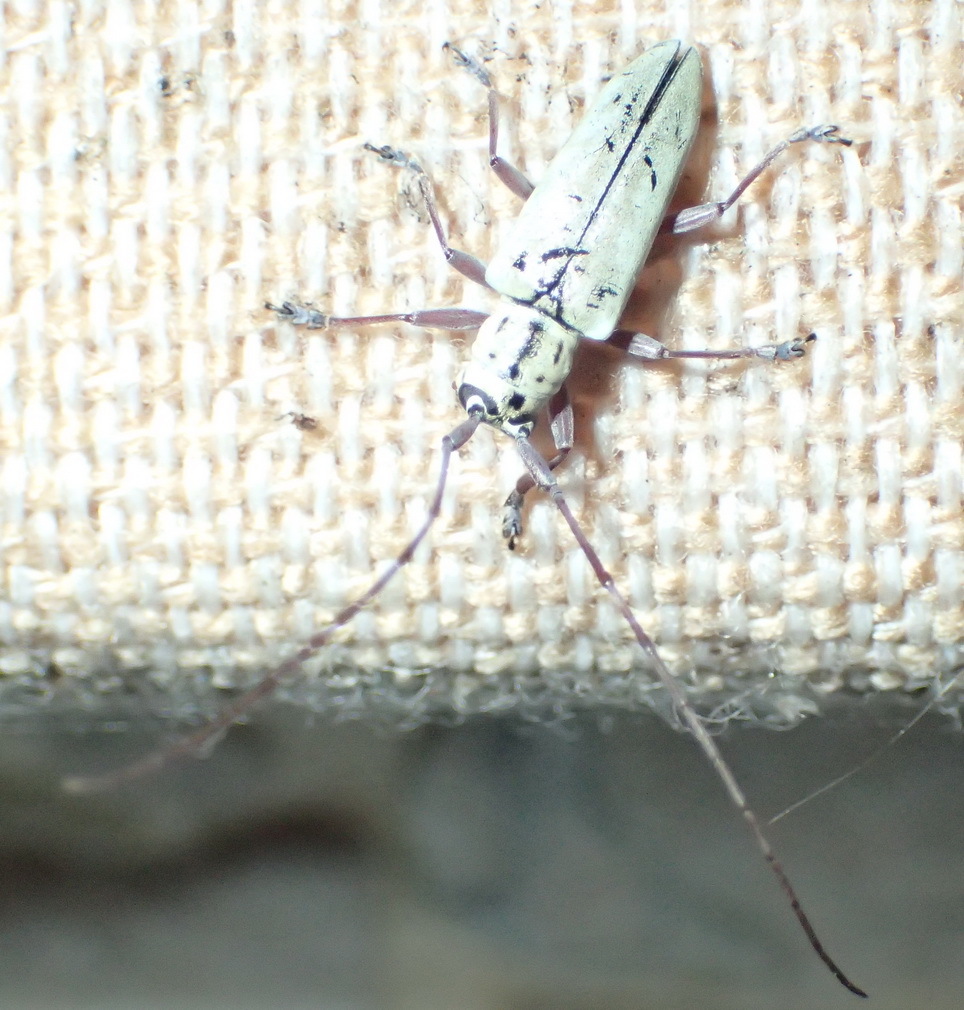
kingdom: Animalia
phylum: Arthropoda
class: Insecta
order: Coleoptera
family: Cerambycidae
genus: Prosopocera
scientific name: Prosopocera maculosa
